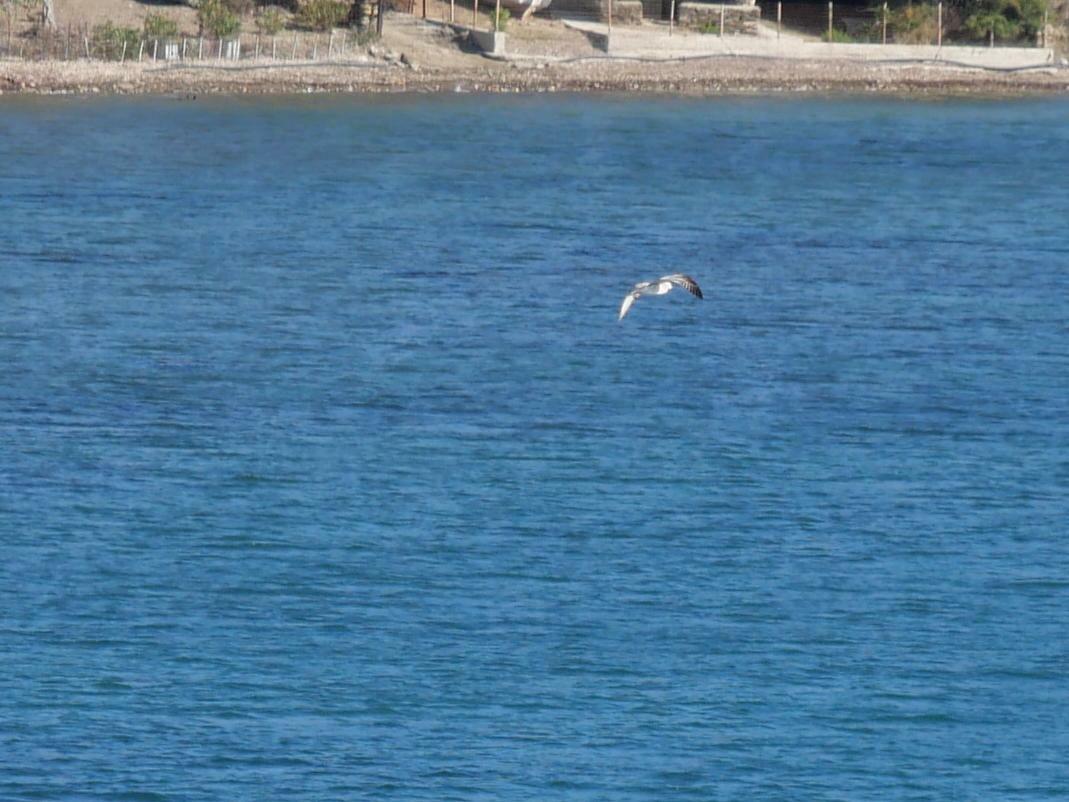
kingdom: Animalia
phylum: Chordata
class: Aves
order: Charadriiformes
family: Laridae
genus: Larus
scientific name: Larus michahellis
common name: Yellow-legged gull
